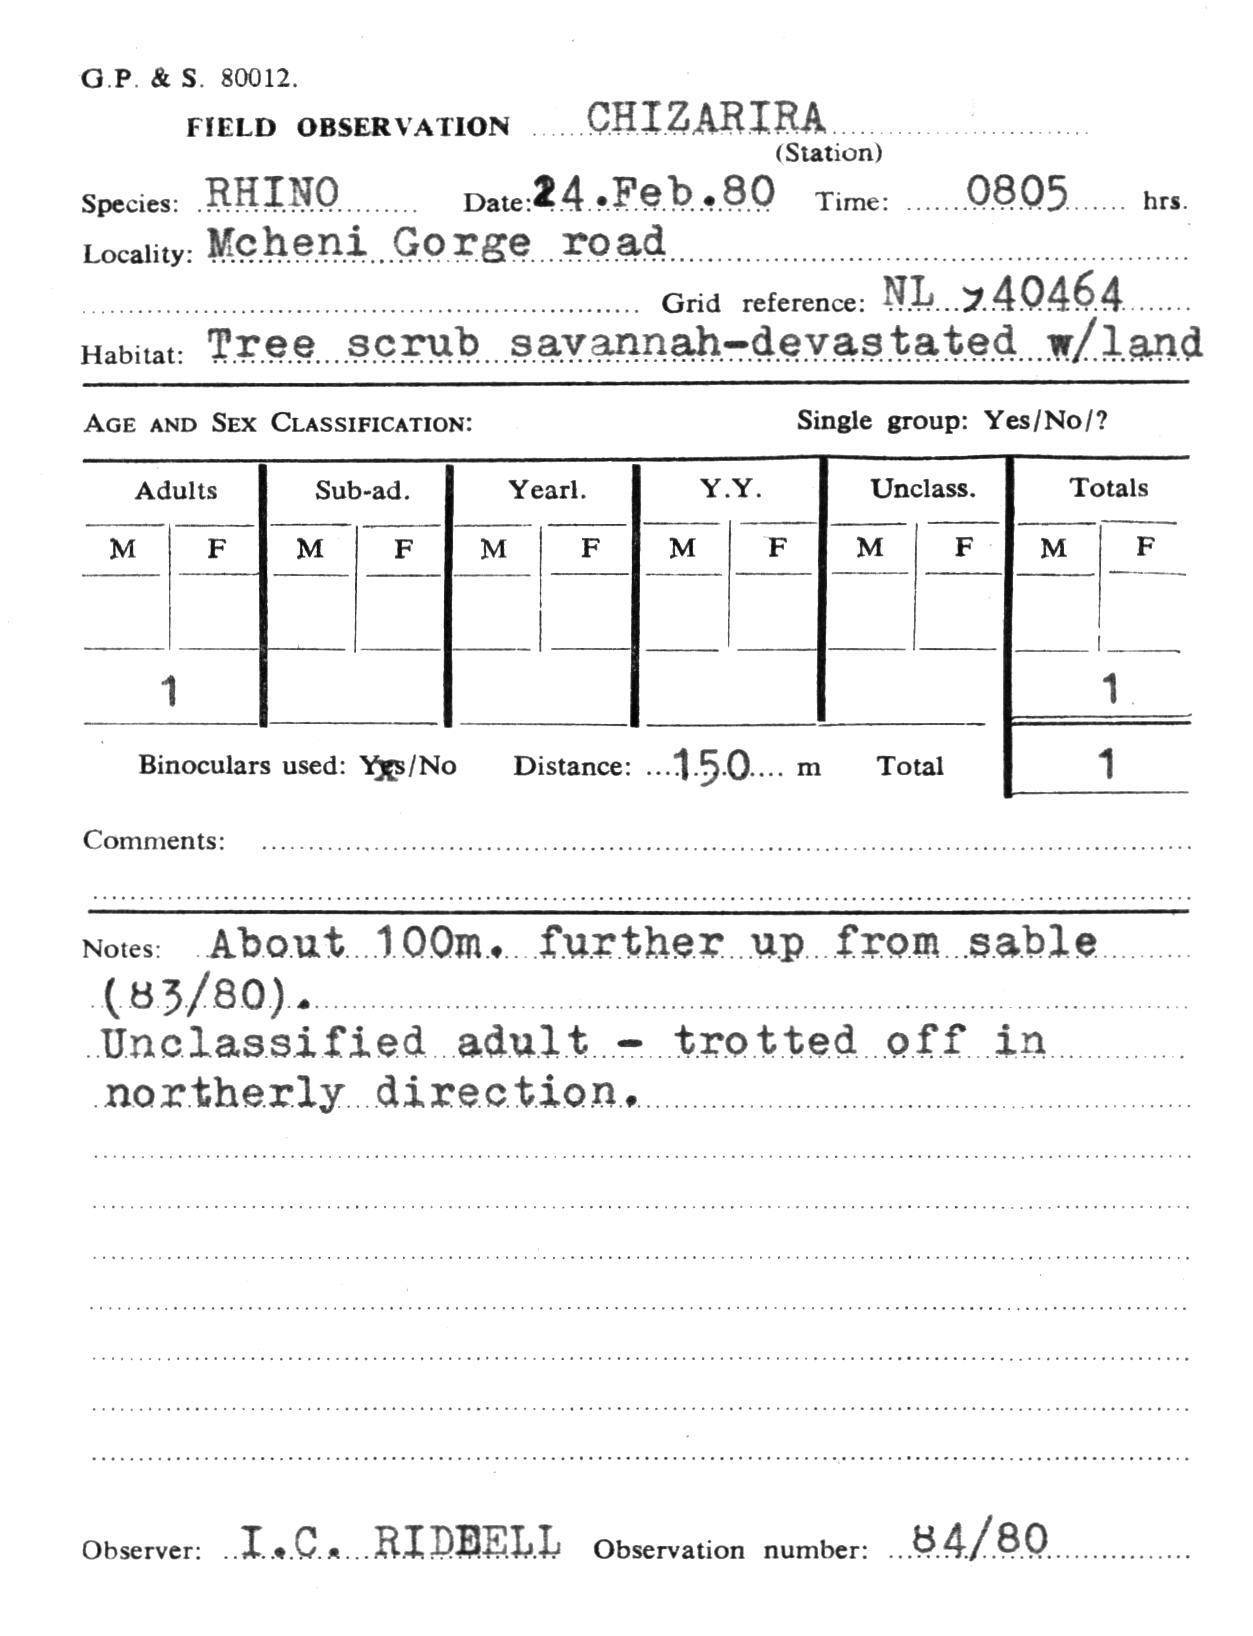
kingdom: Animalia
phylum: Chordata
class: Mammalia
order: Perissodactyla
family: Rhinocerotidae
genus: Diceros
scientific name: Diceros bicornis
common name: Black rhinoceros
